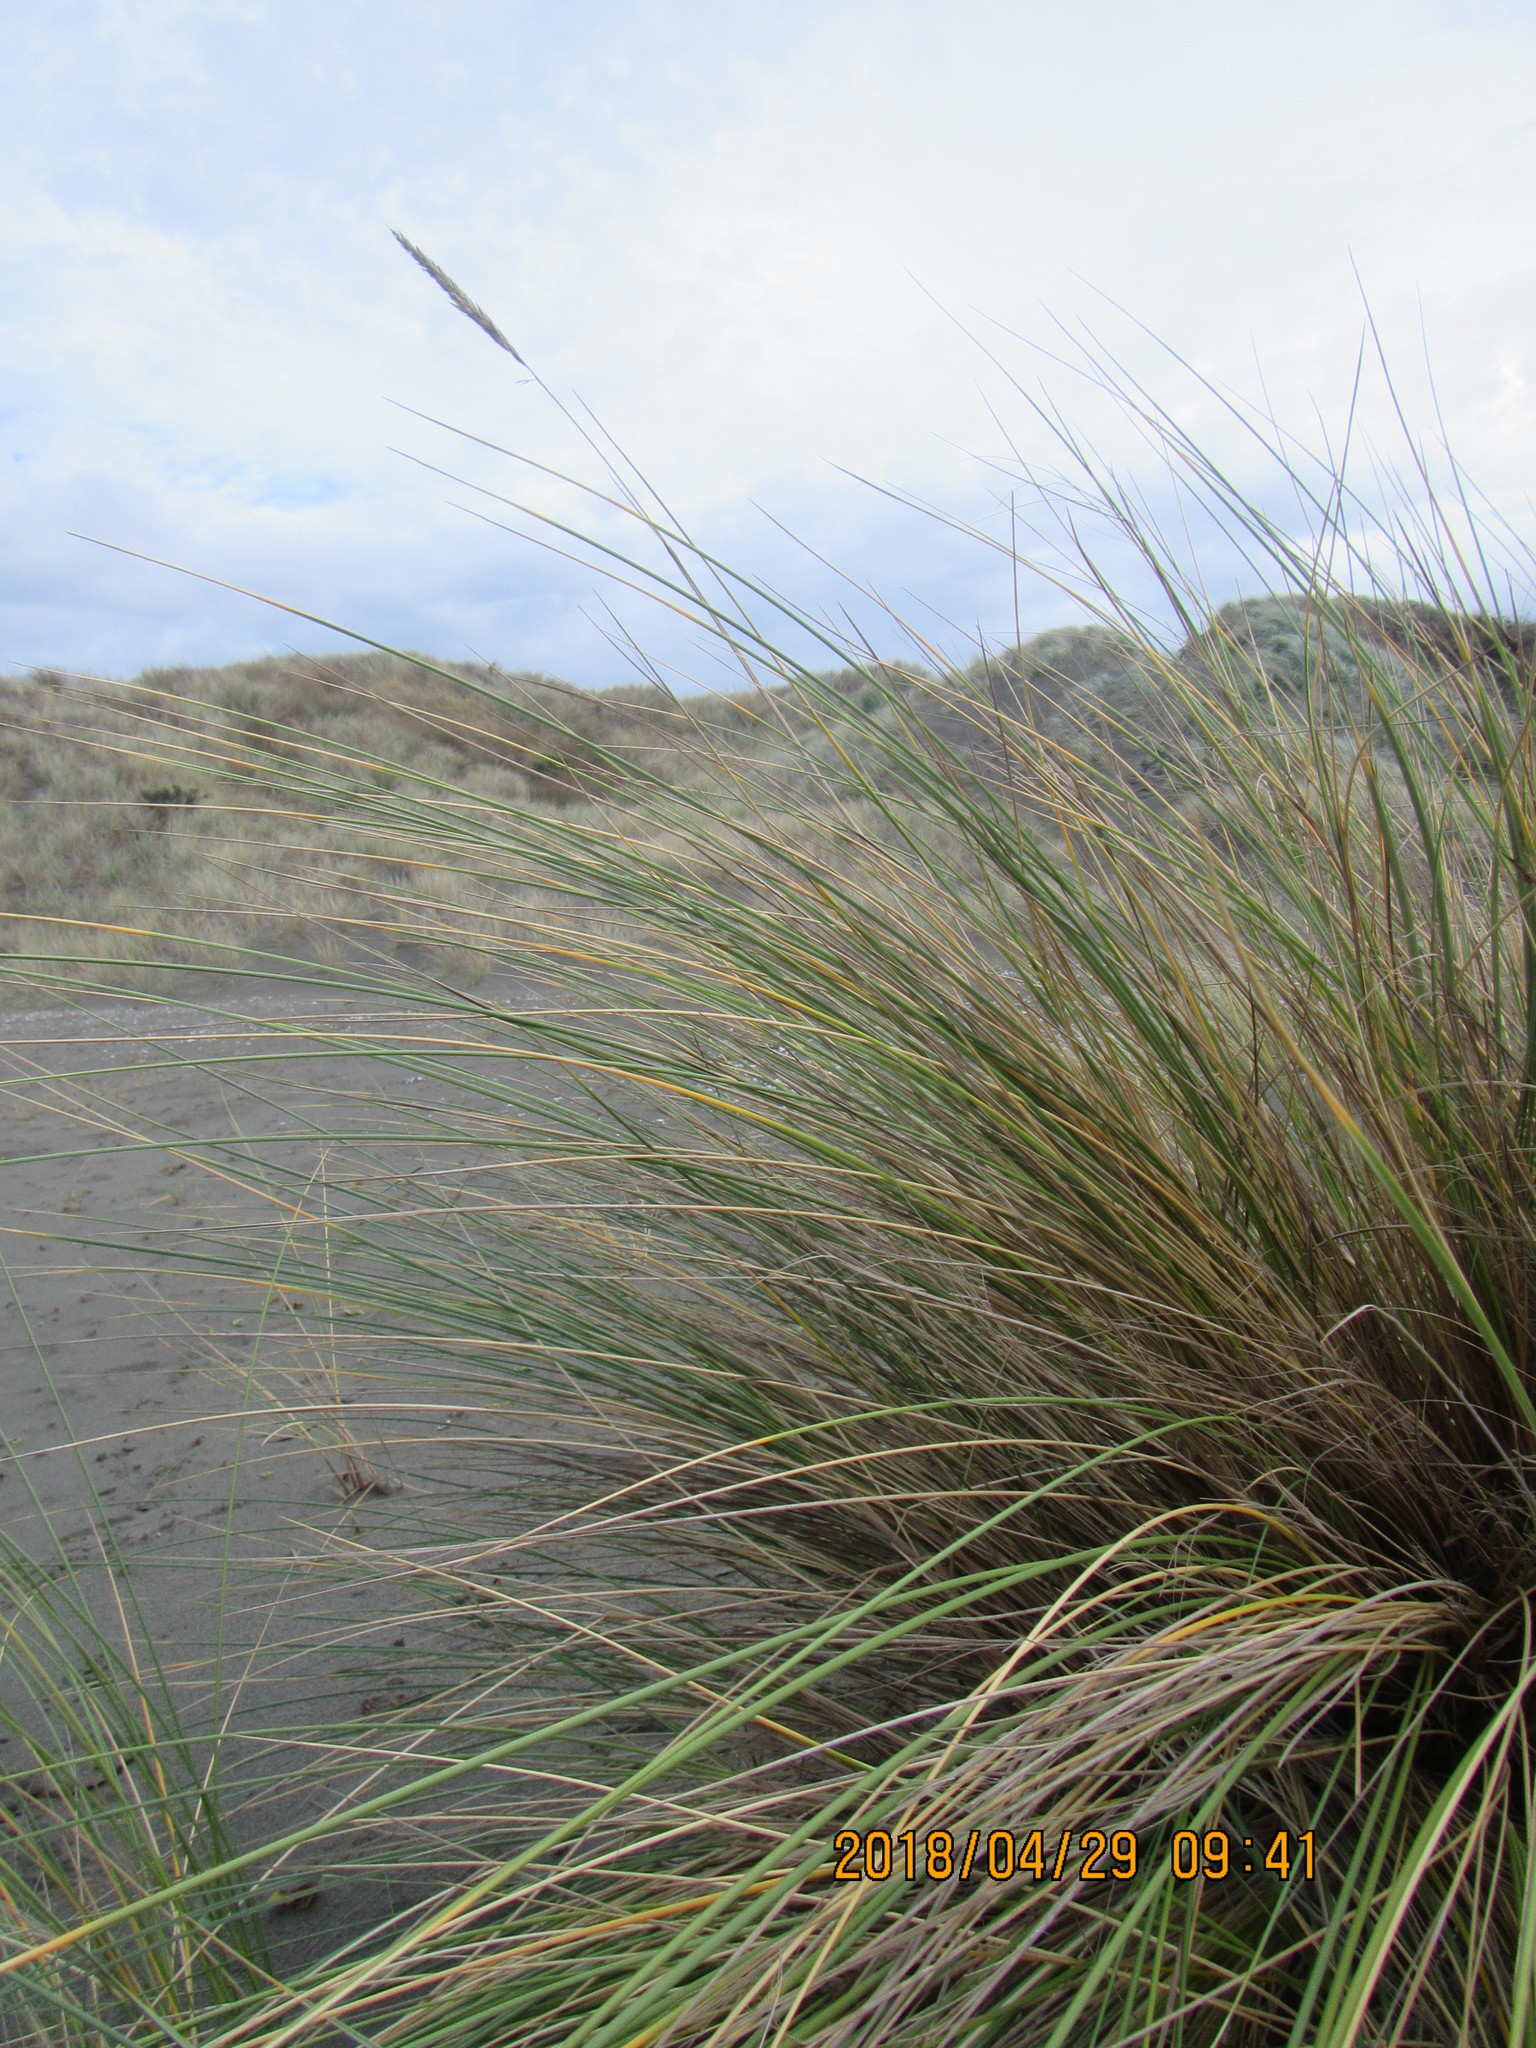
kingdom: Plantae
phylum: Tracheophyta
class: Liliopsida
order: Poales
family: Poaceae
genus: Calamagrostis
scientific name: Calamagrostis arenaria
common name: European beachgrass
